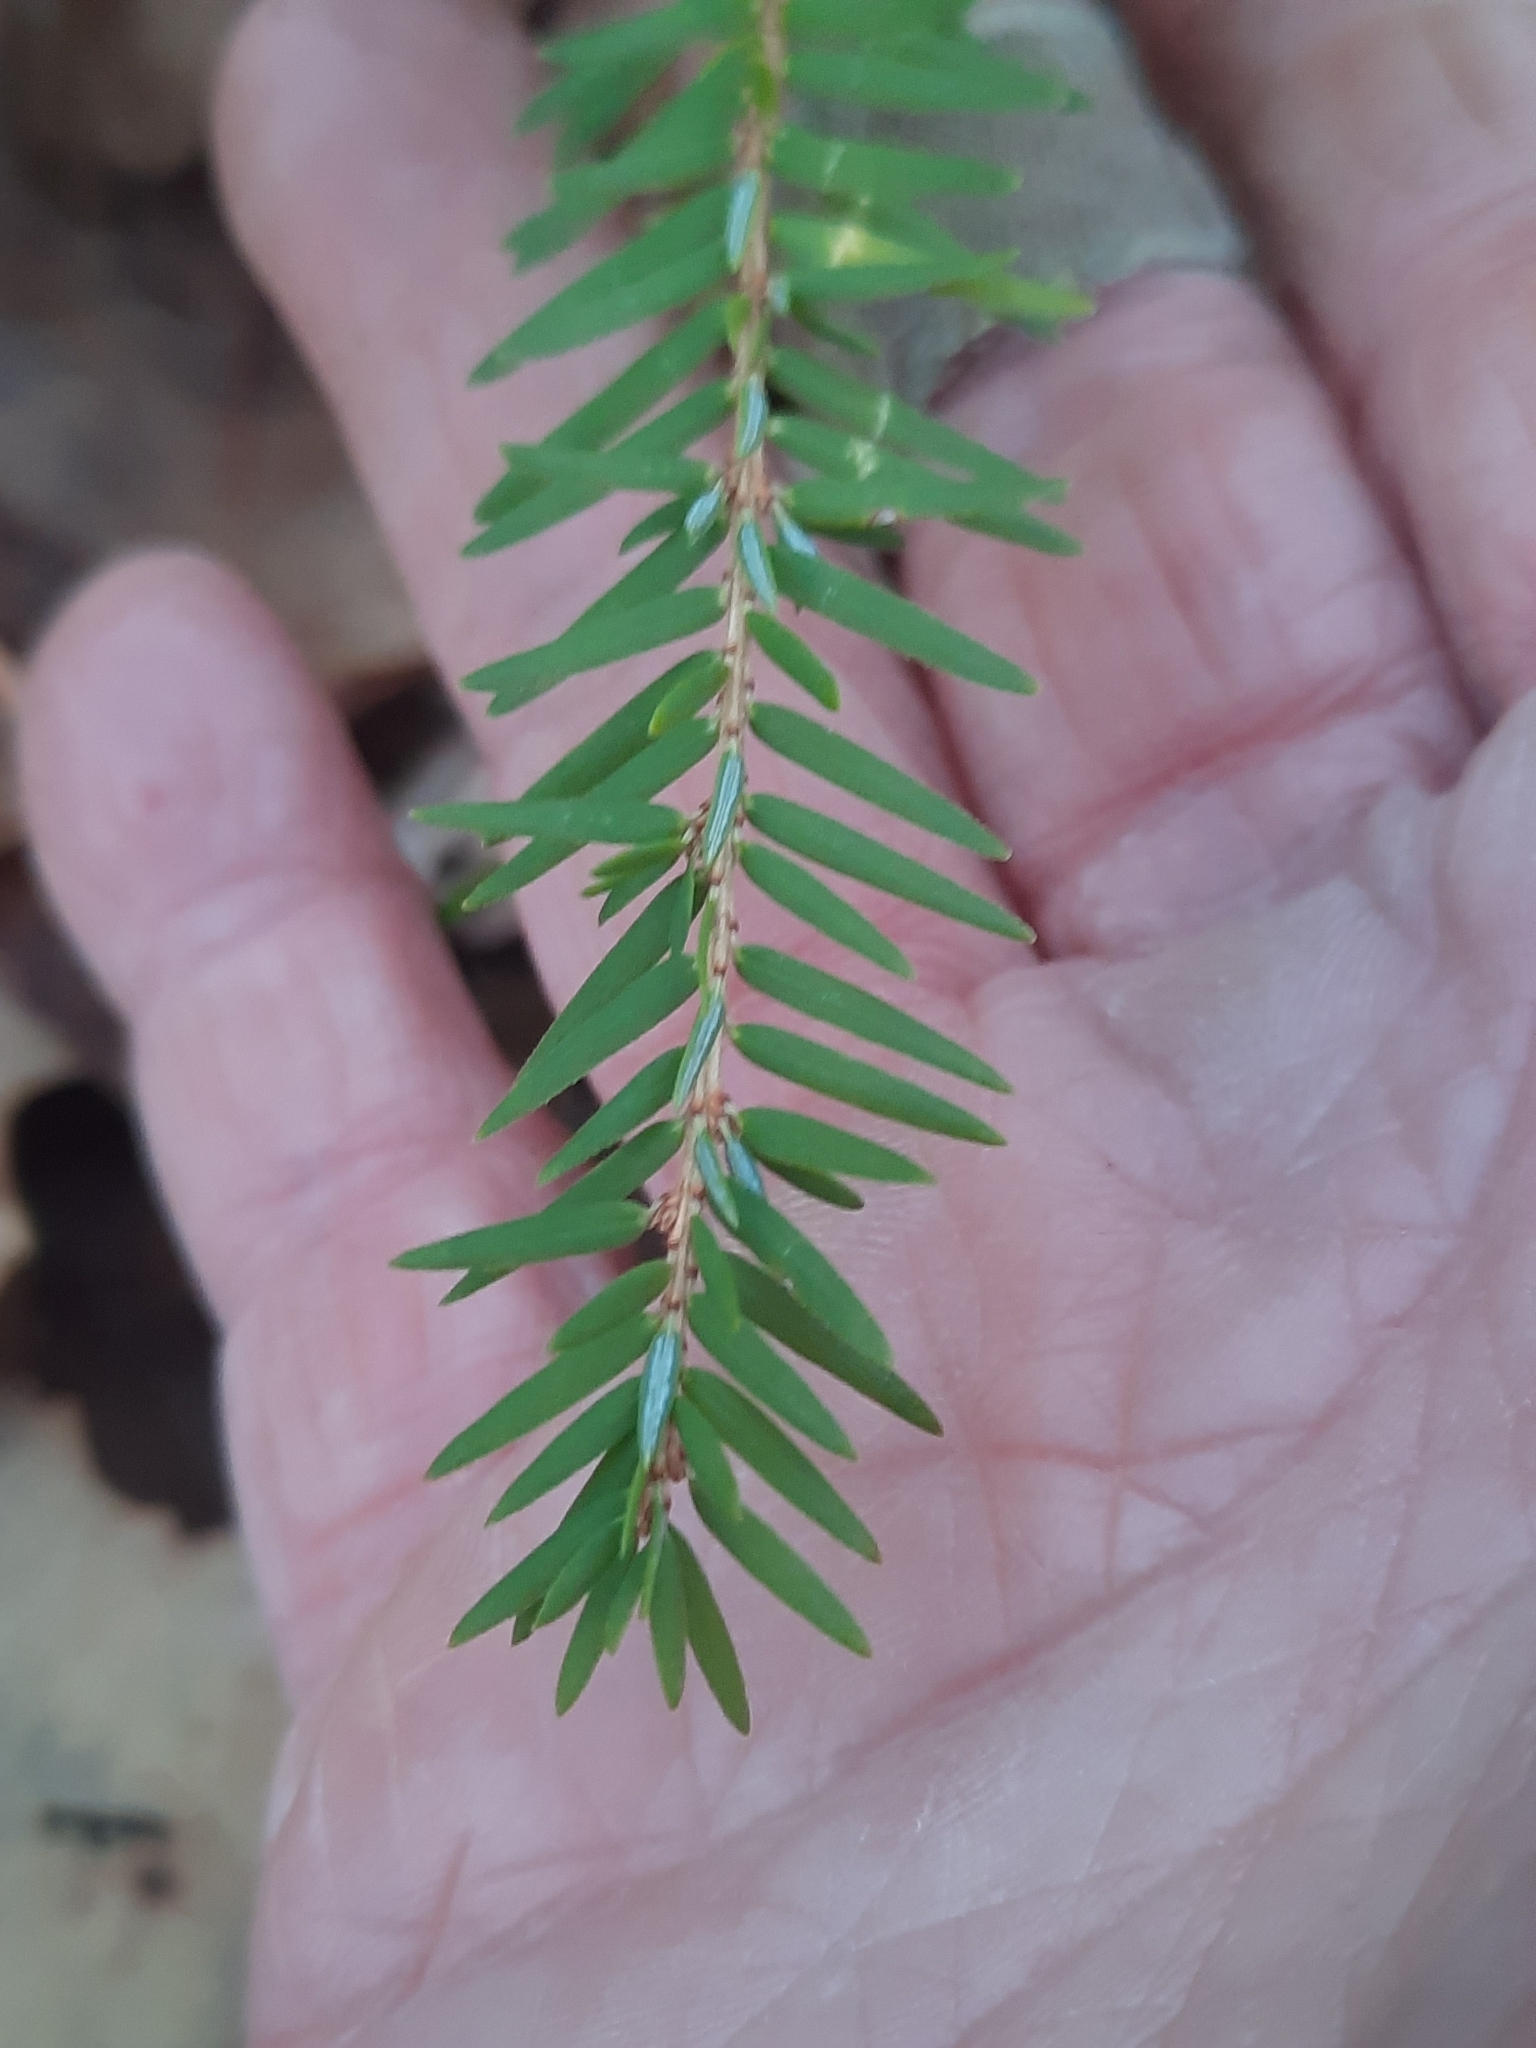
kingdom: Plantae
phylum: Tracheophyta
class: Pinopsida
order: Pinales
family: Pinaceae
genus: Tsuga
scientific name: Tsuga canadensis
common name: Eastern hemlock
